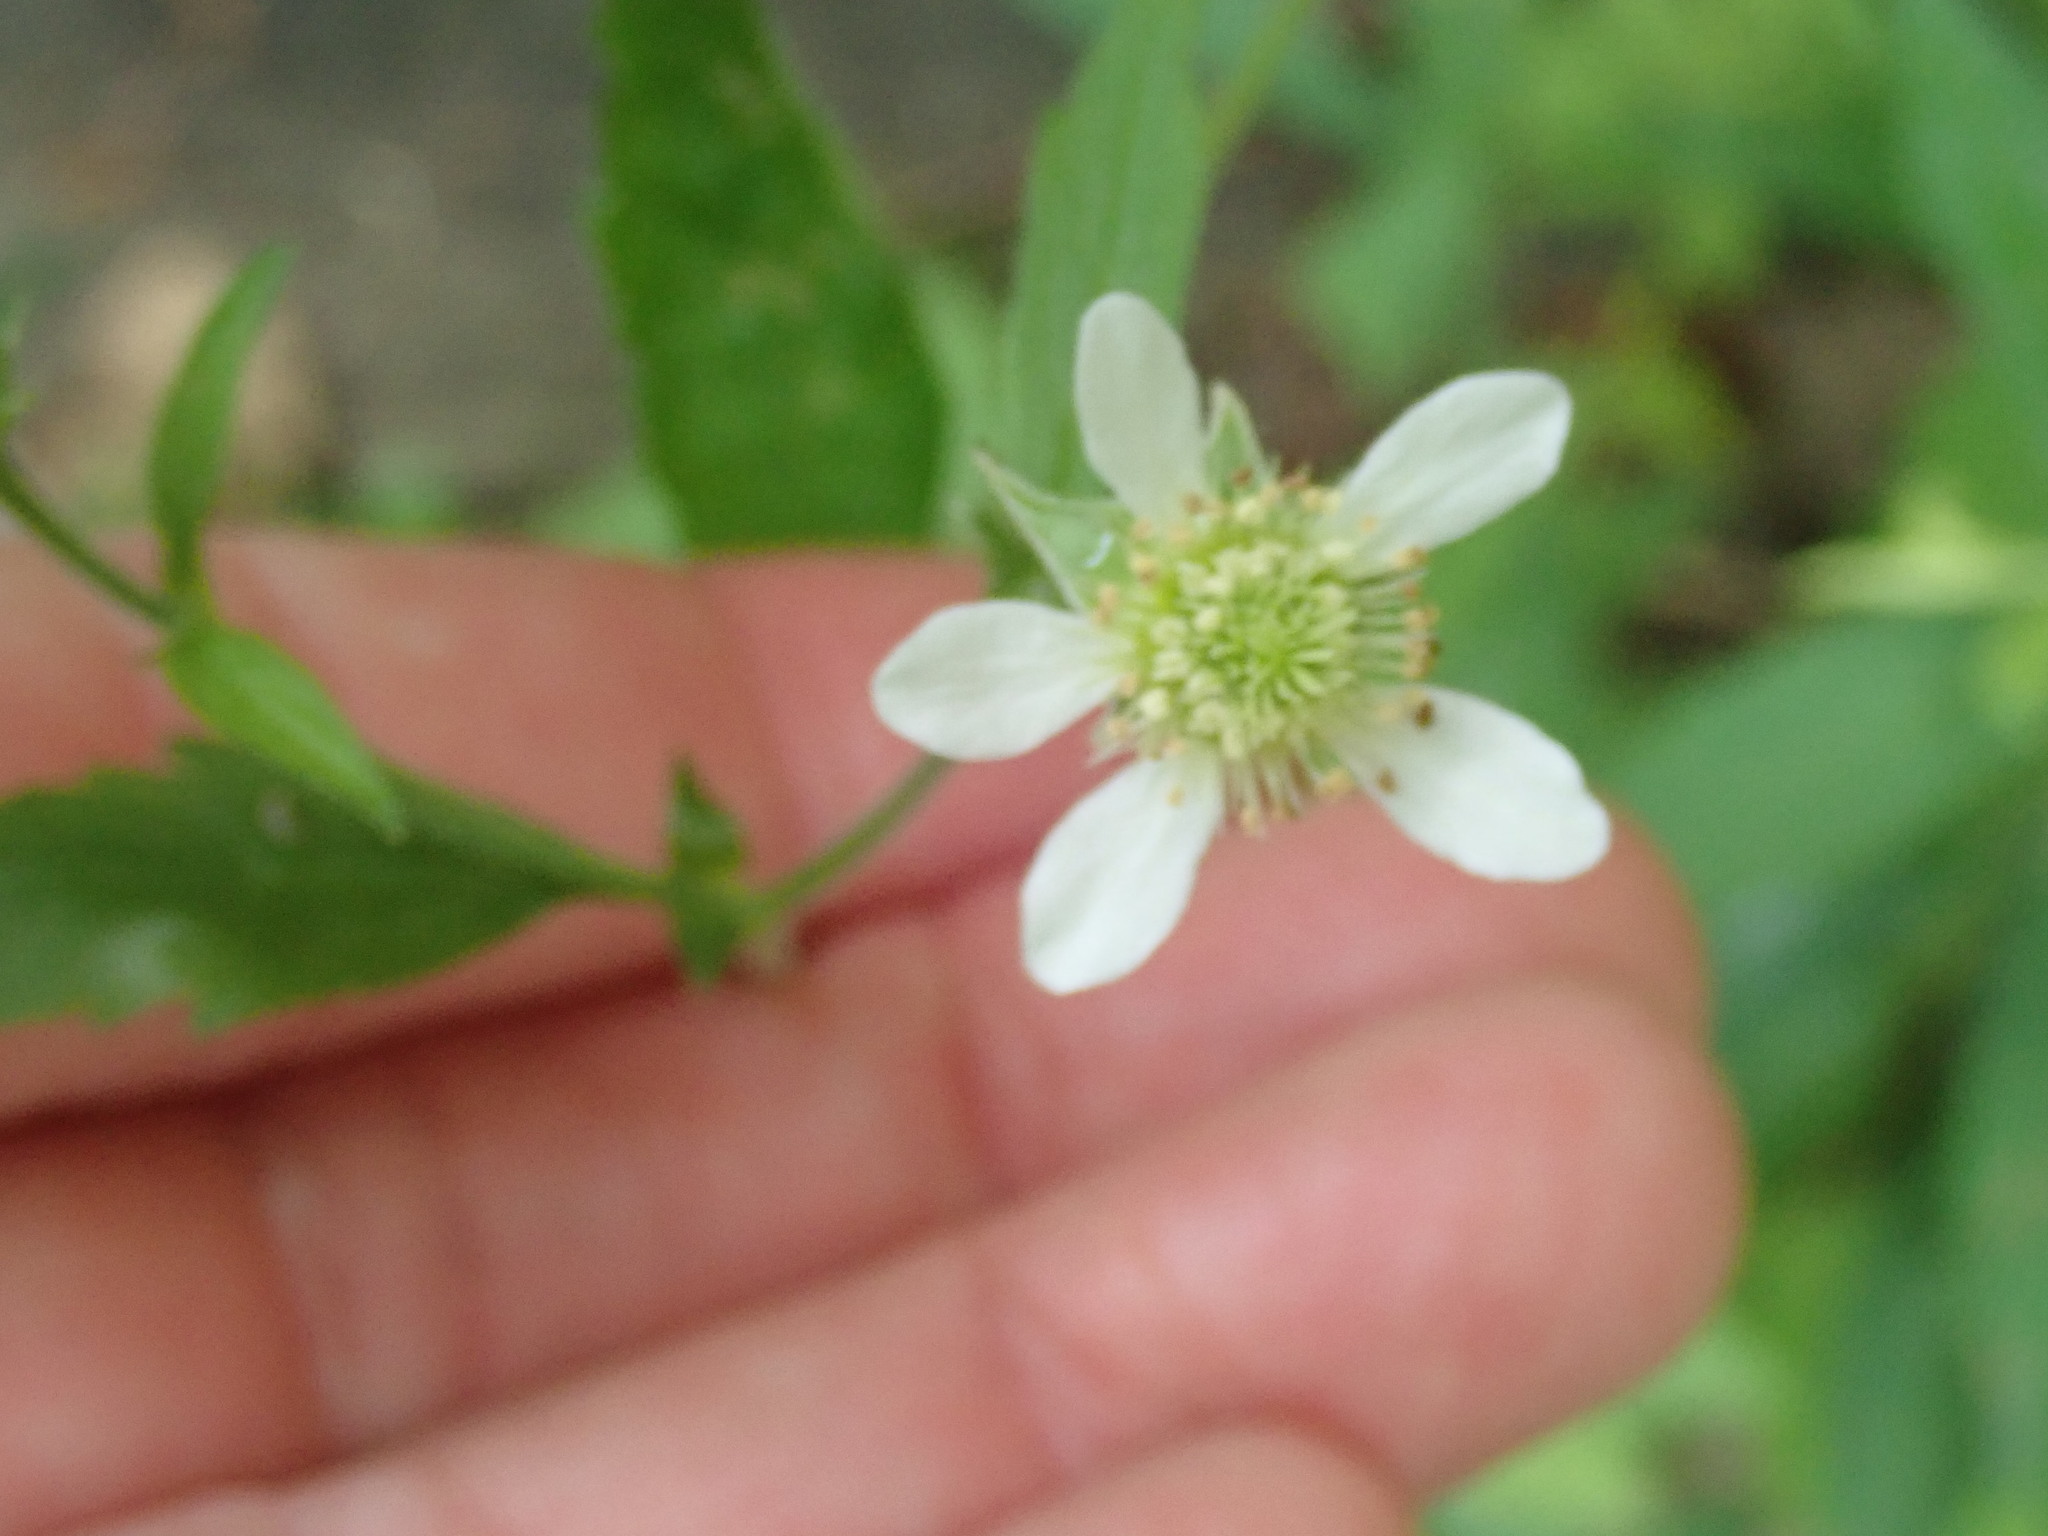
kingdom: Plantae
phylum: Tracheophyta
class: Magnoliopsida
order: Rosales
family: Rosaceae
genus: Geum
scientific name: Geum canadense
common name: White avens
